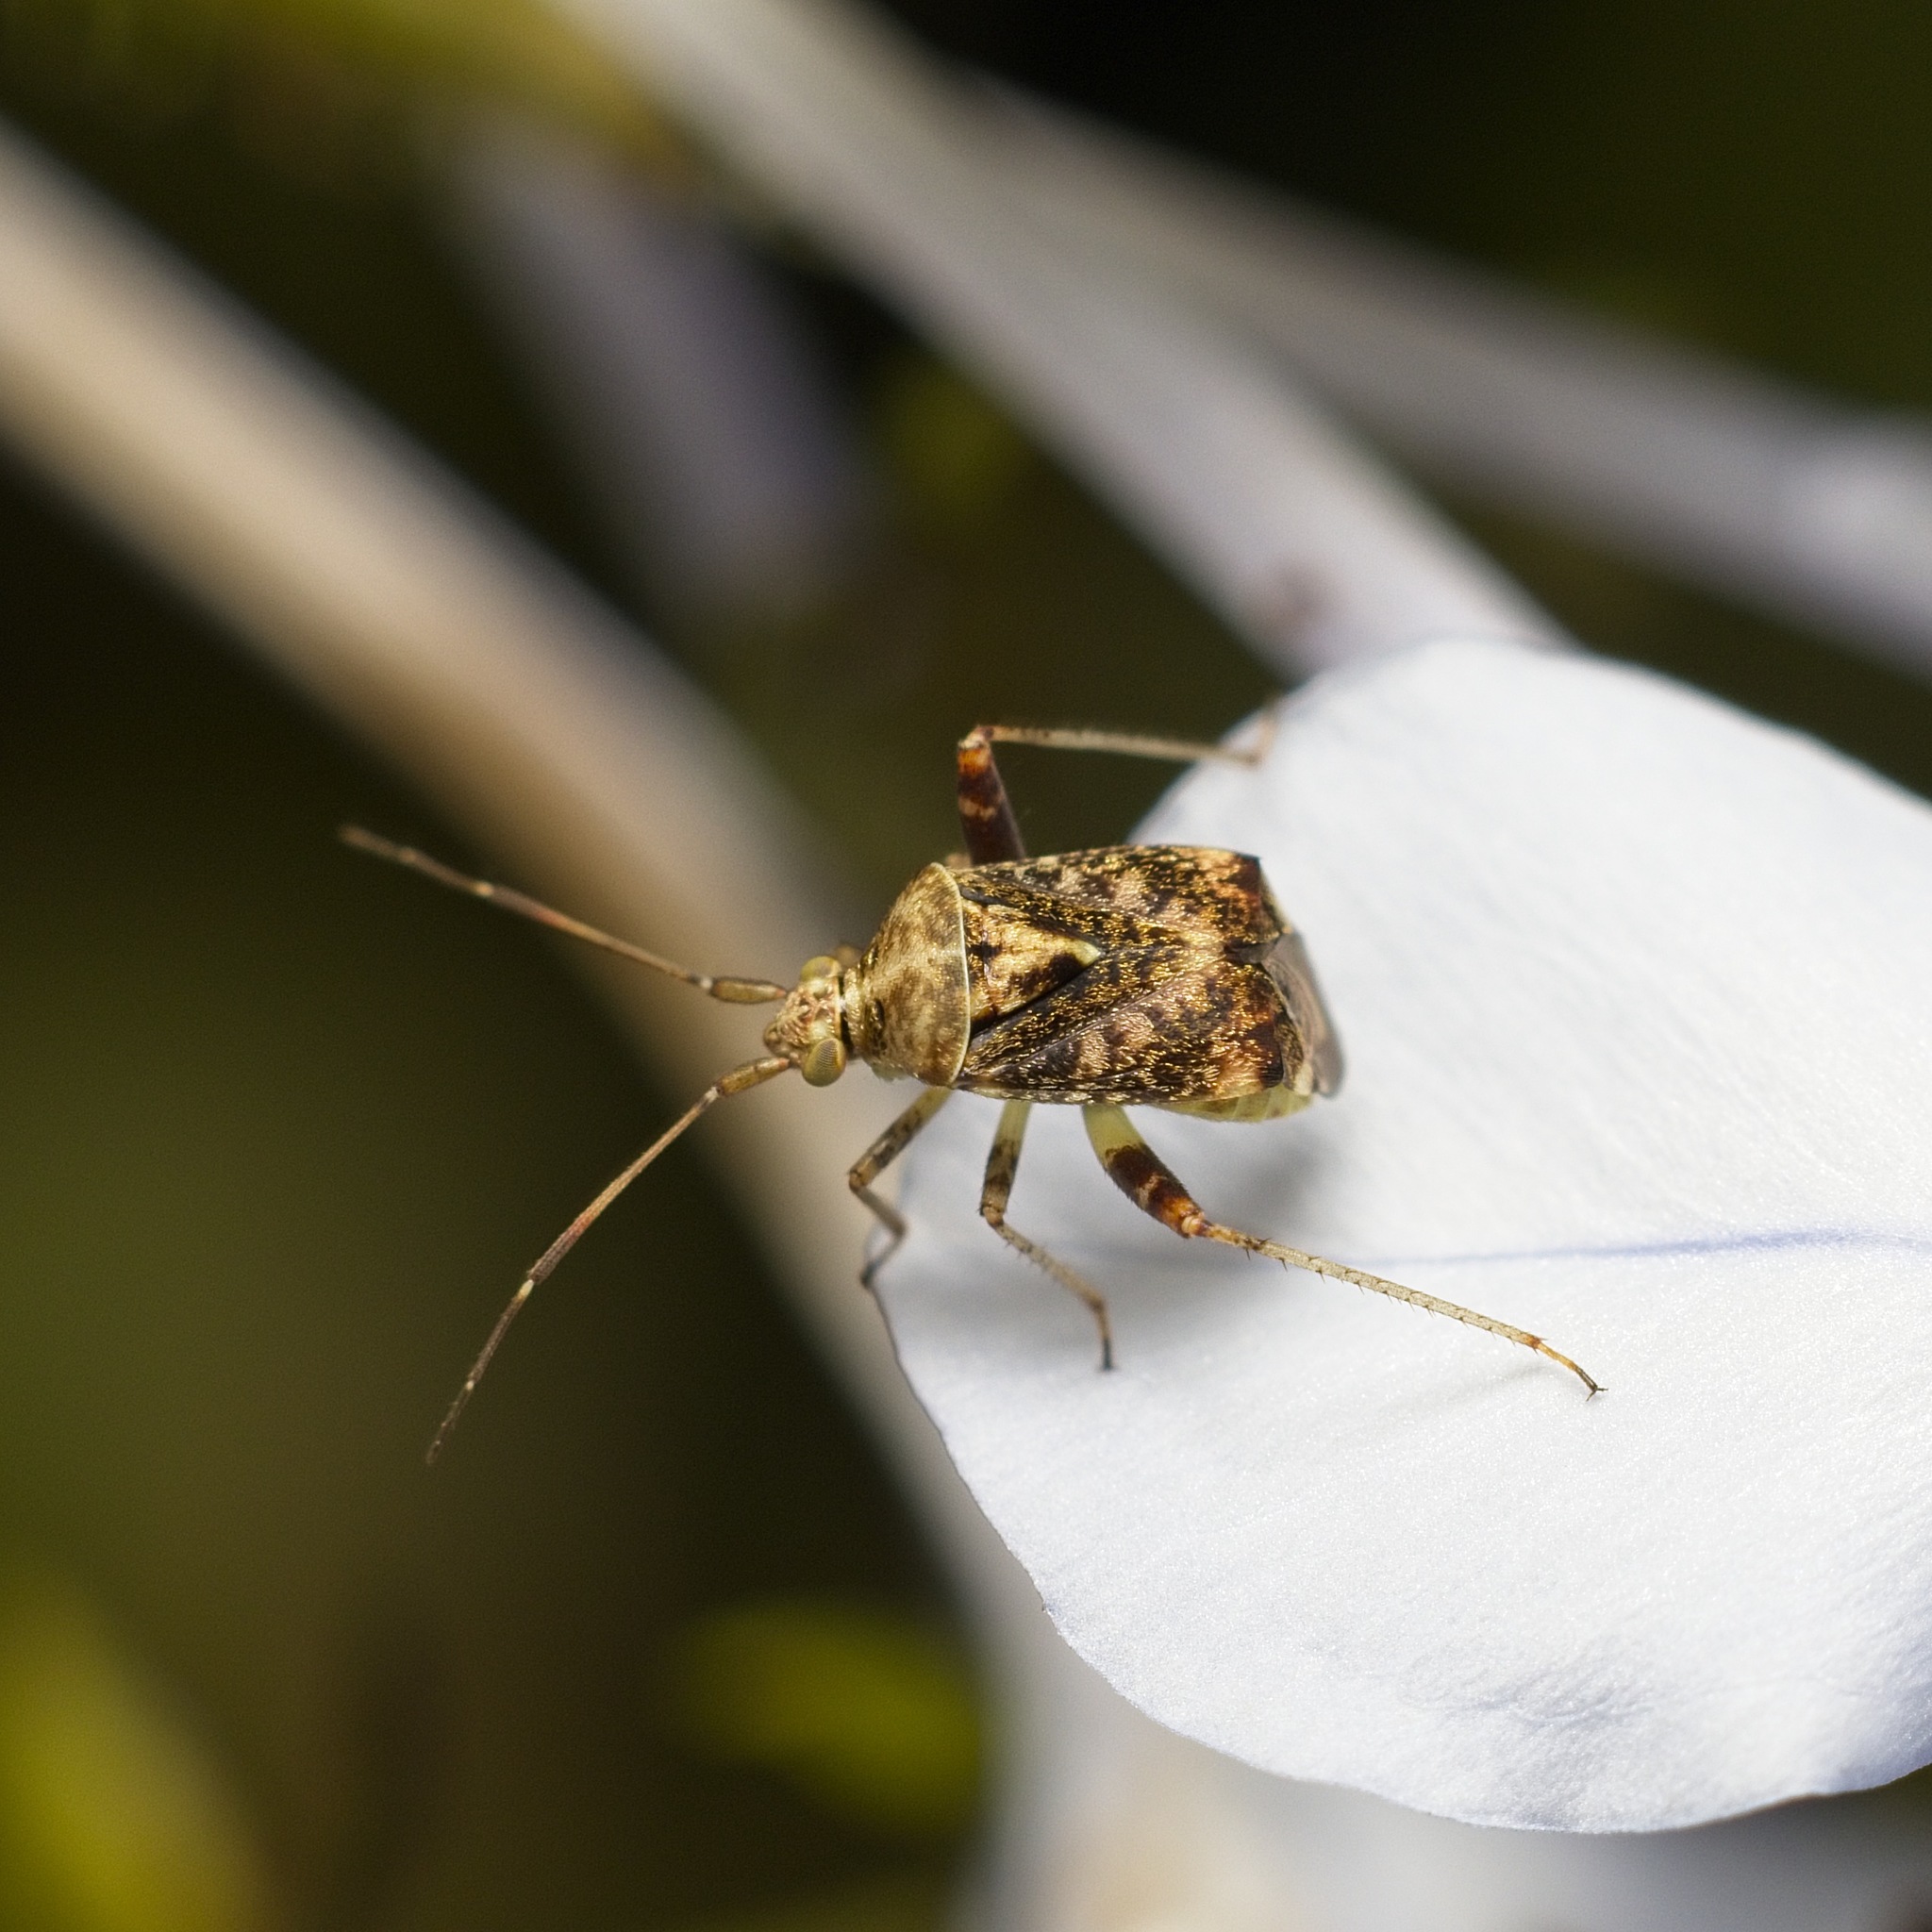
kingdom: Animalia
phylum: Arthropoda
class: Insecta
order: Hemiptera
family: Miridae
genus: Sidnia
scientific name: Sidnia kinbergi
